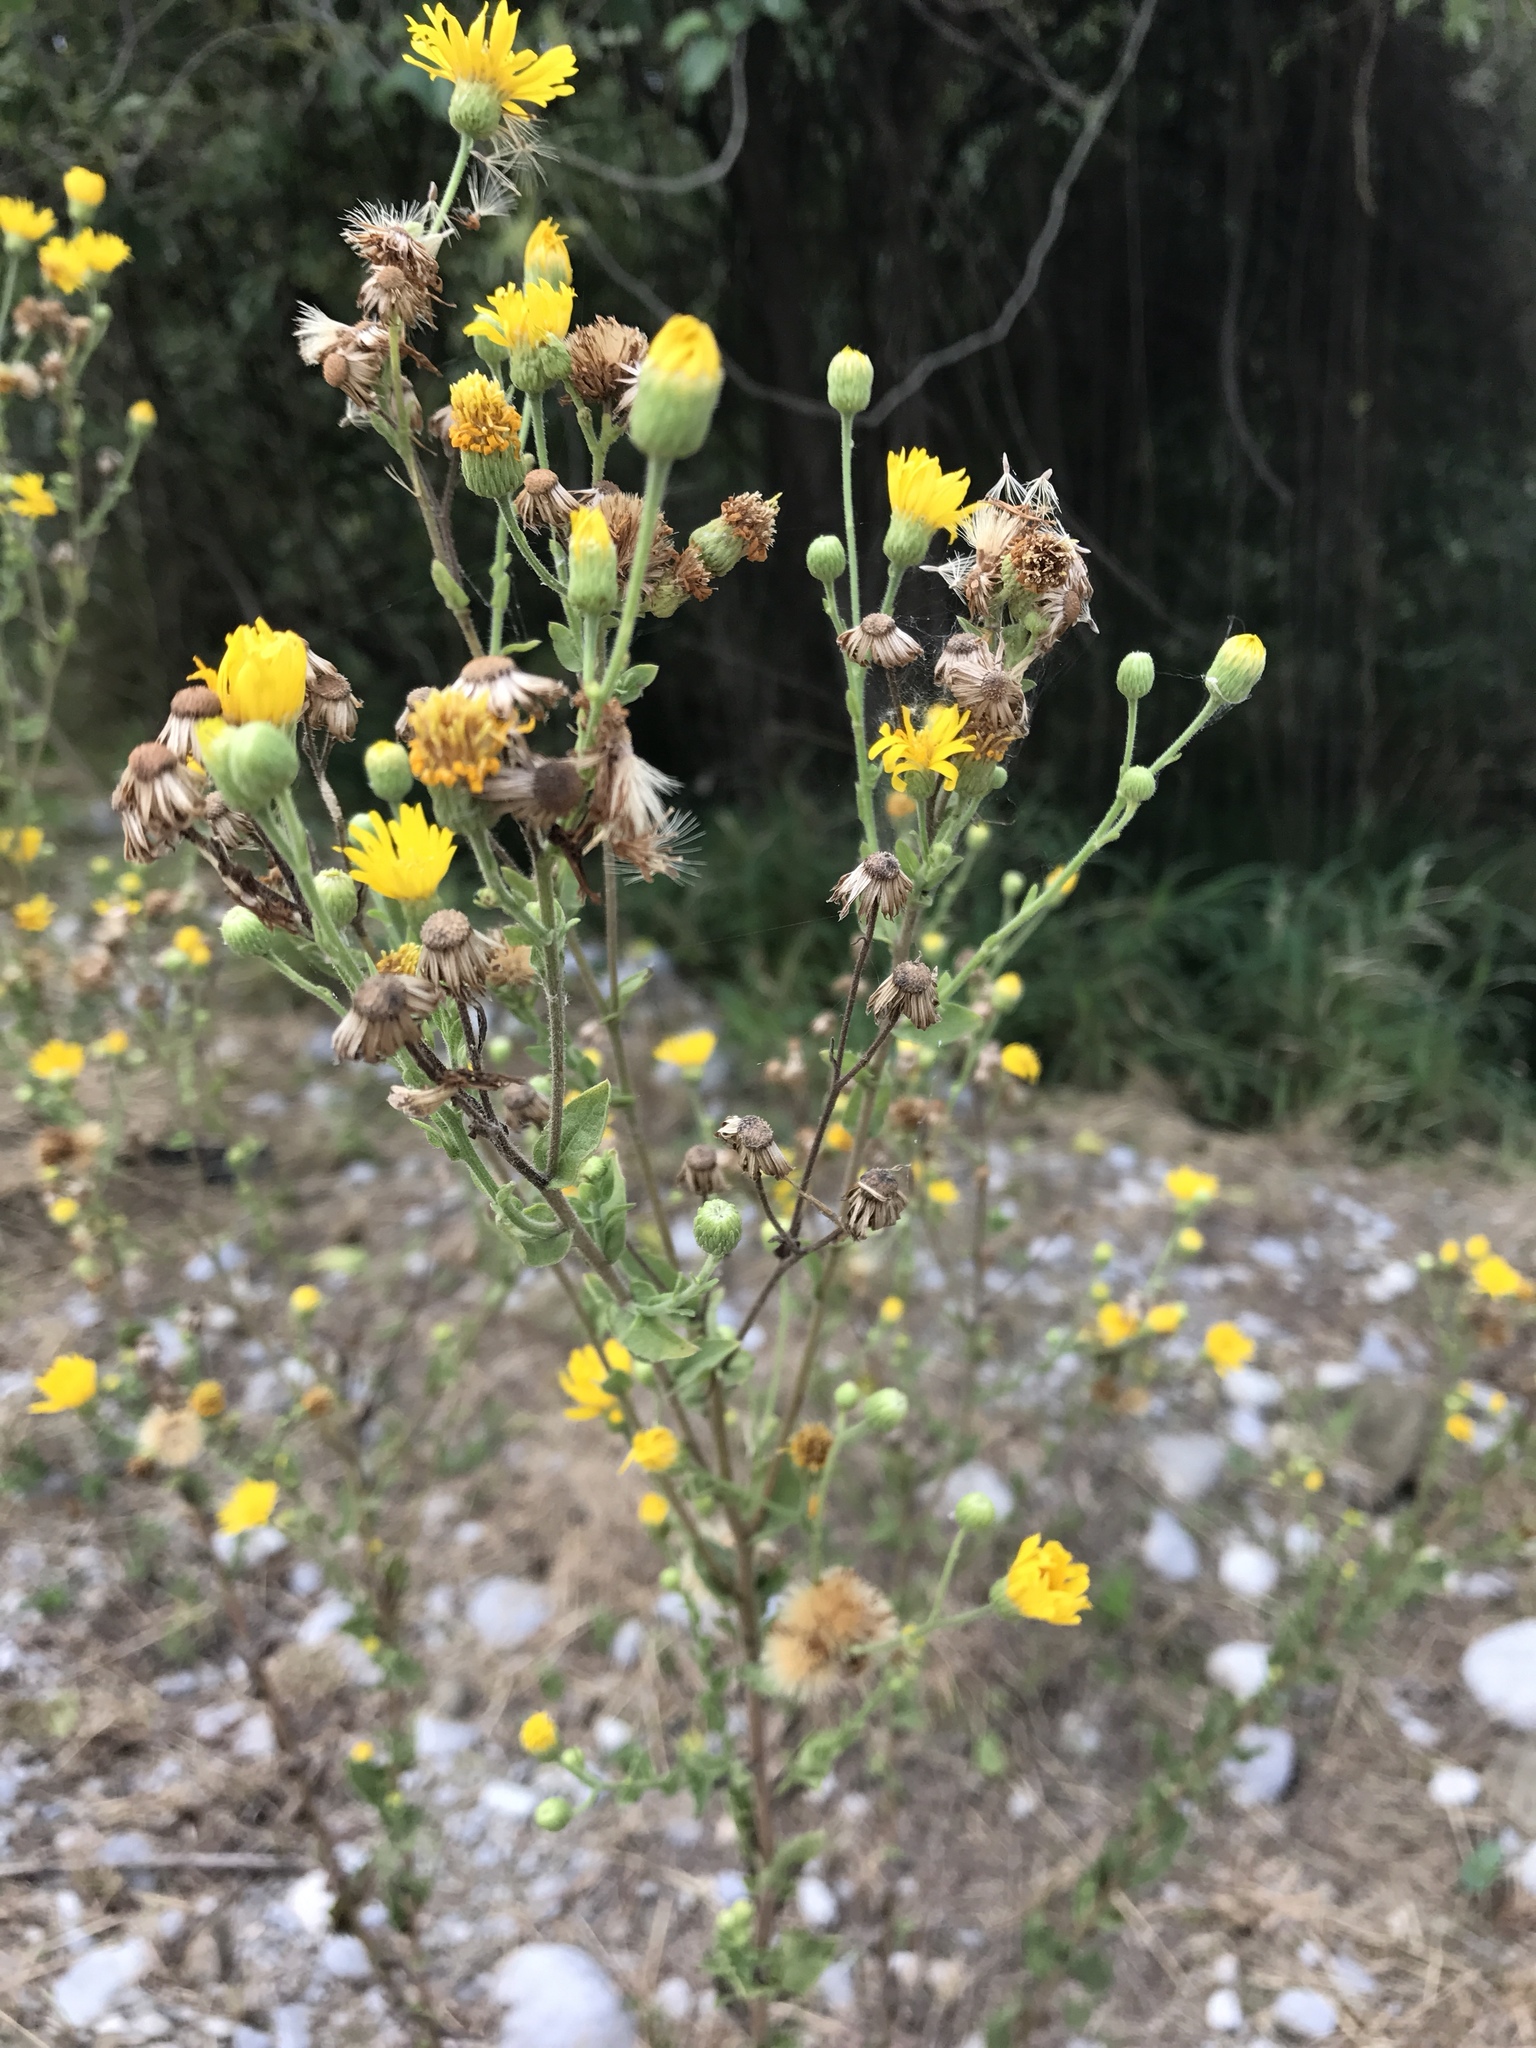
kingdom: Plantae
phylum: Tracheophyta
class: Magnoliopsida
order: Asterales
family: Asteraceae
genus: Heterotheca
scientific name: Heterotheca subaxillaris
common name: Camphorweed
